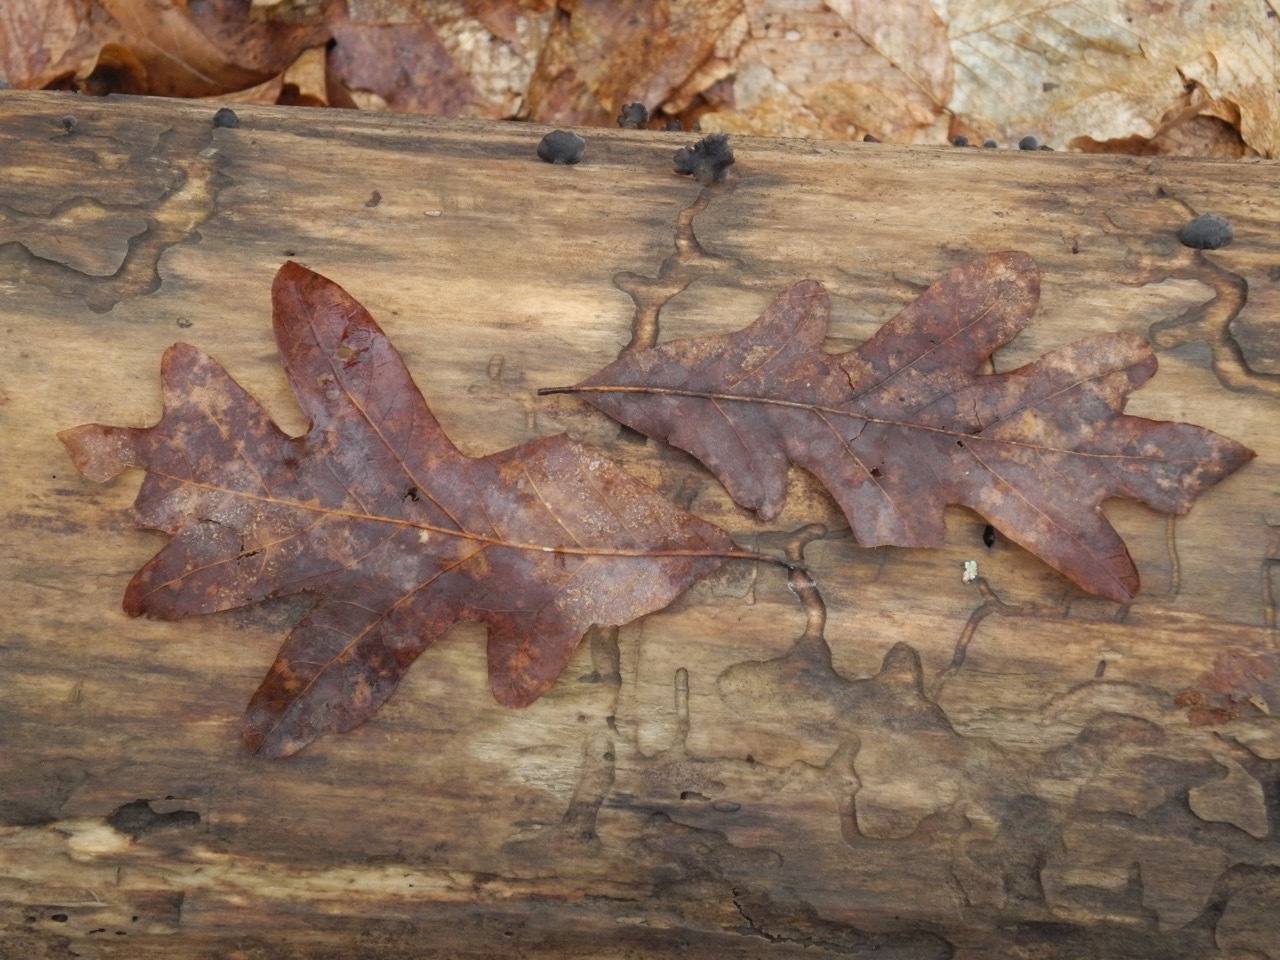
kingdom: Plantae
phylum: Tracheophyta
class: Magnoliopsida
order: Fagales
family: Fagaceae
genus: Quercus
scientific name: Quercus alba
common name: White oak
